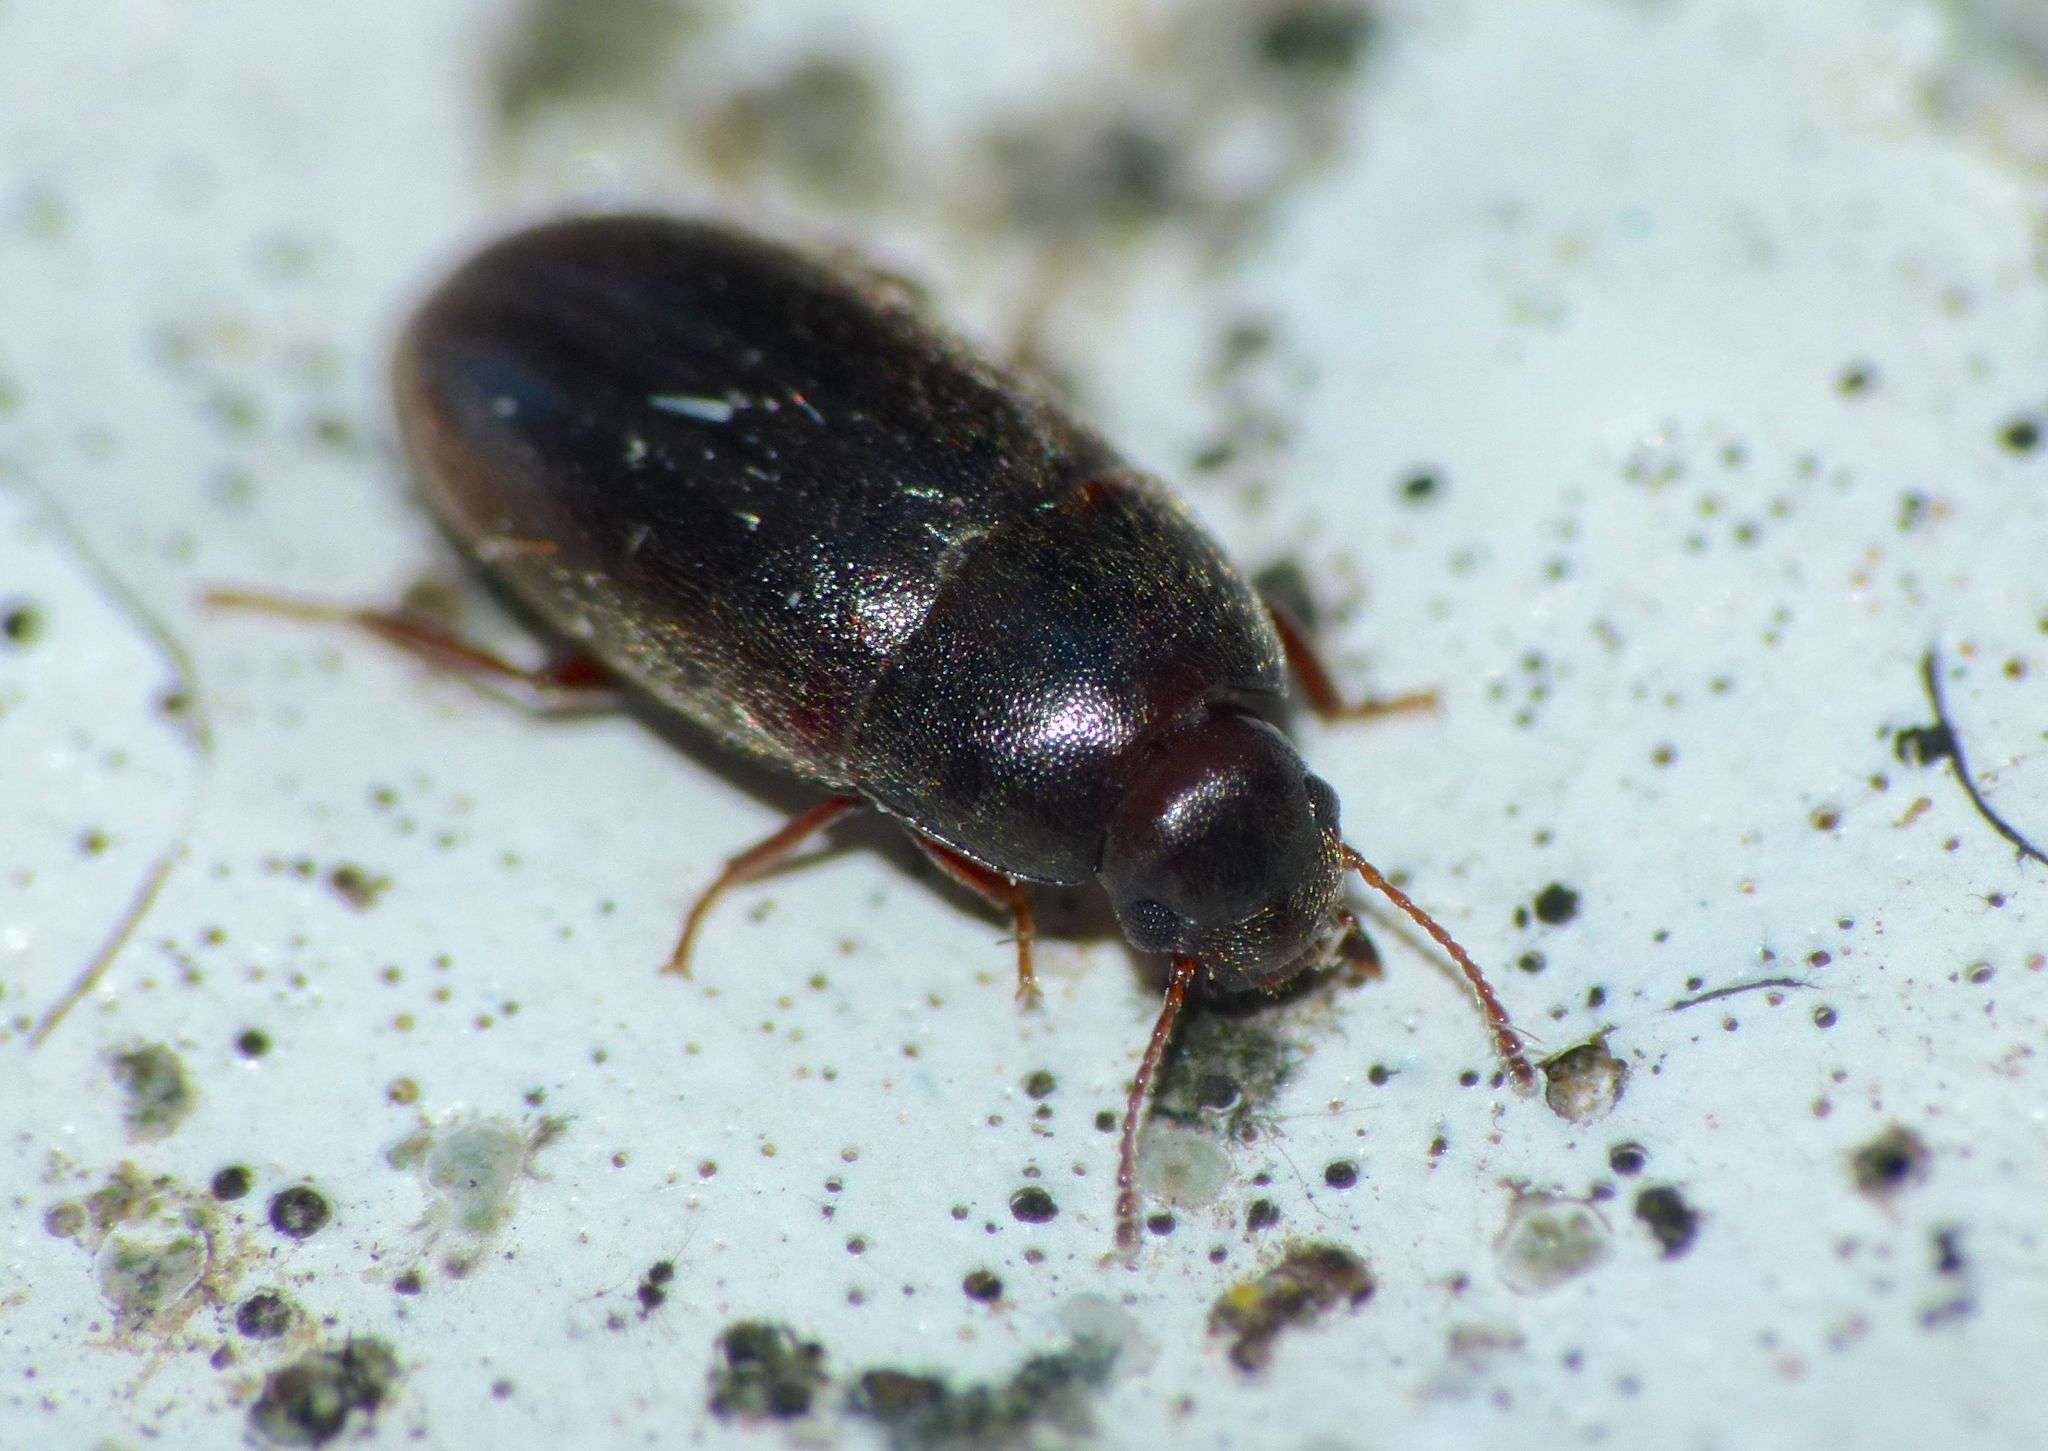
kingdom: Animalia
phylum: Arthropoda
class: Insecta
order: Coleoptera
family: Archeocrypticidae
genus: Enneboeus
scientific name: Enneboeus
